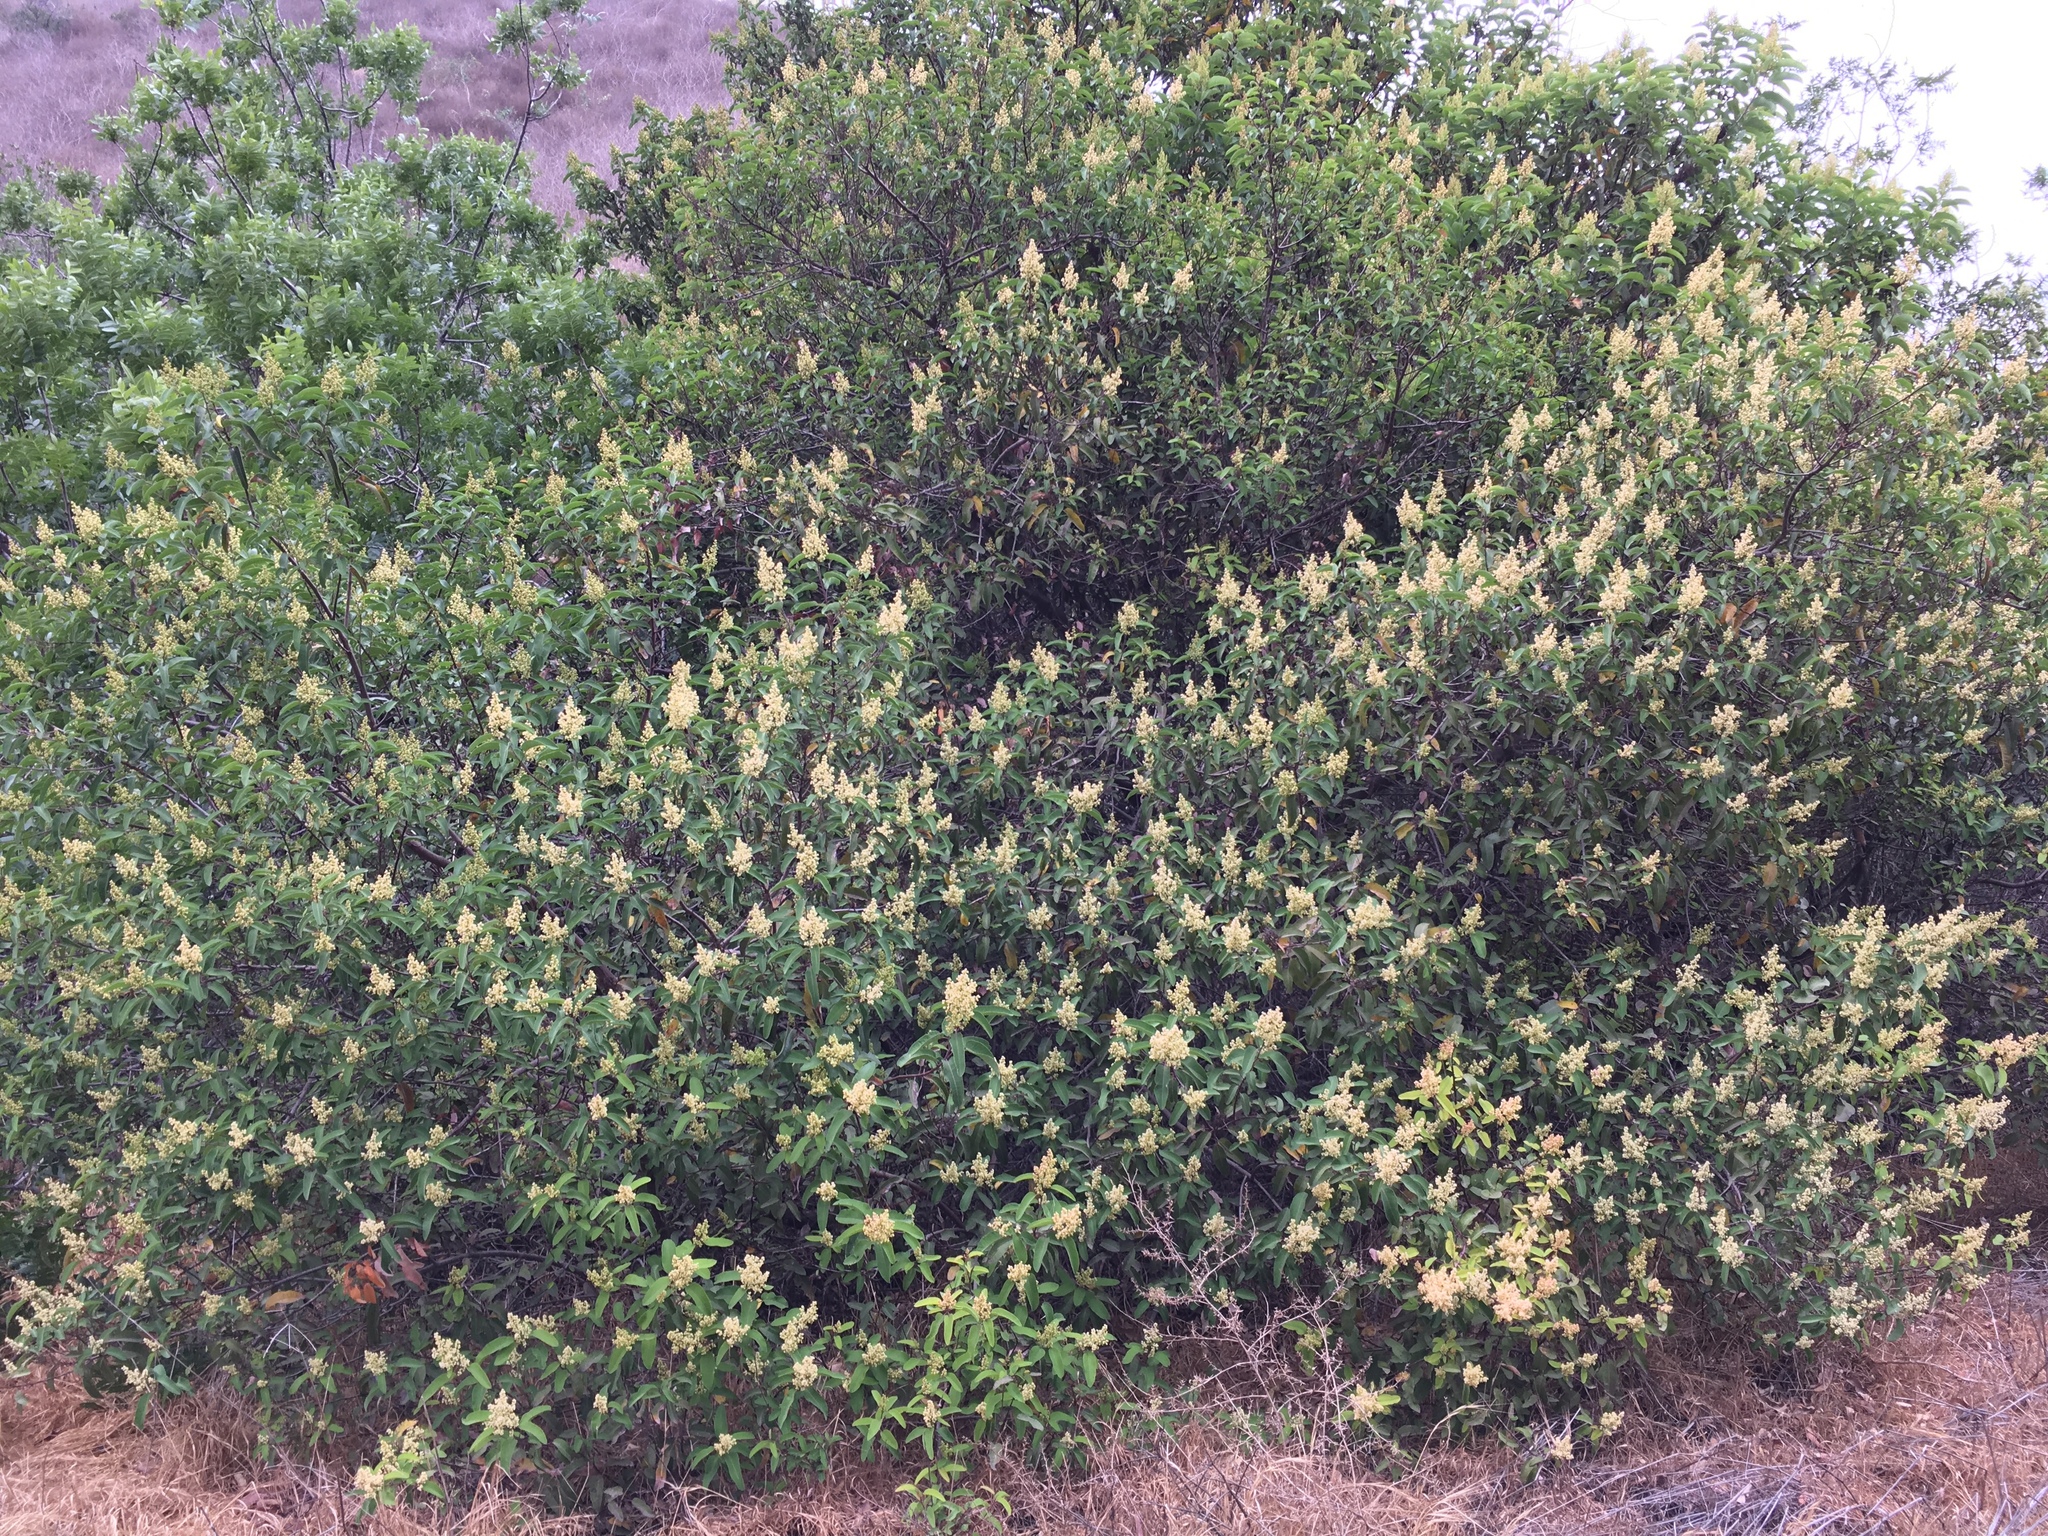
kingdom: Plantae
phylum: Tracheophyta
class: Magnoliopsida
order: Sapindales
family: Anacardiaceae
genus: Malosma
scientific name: Malosma laurina
